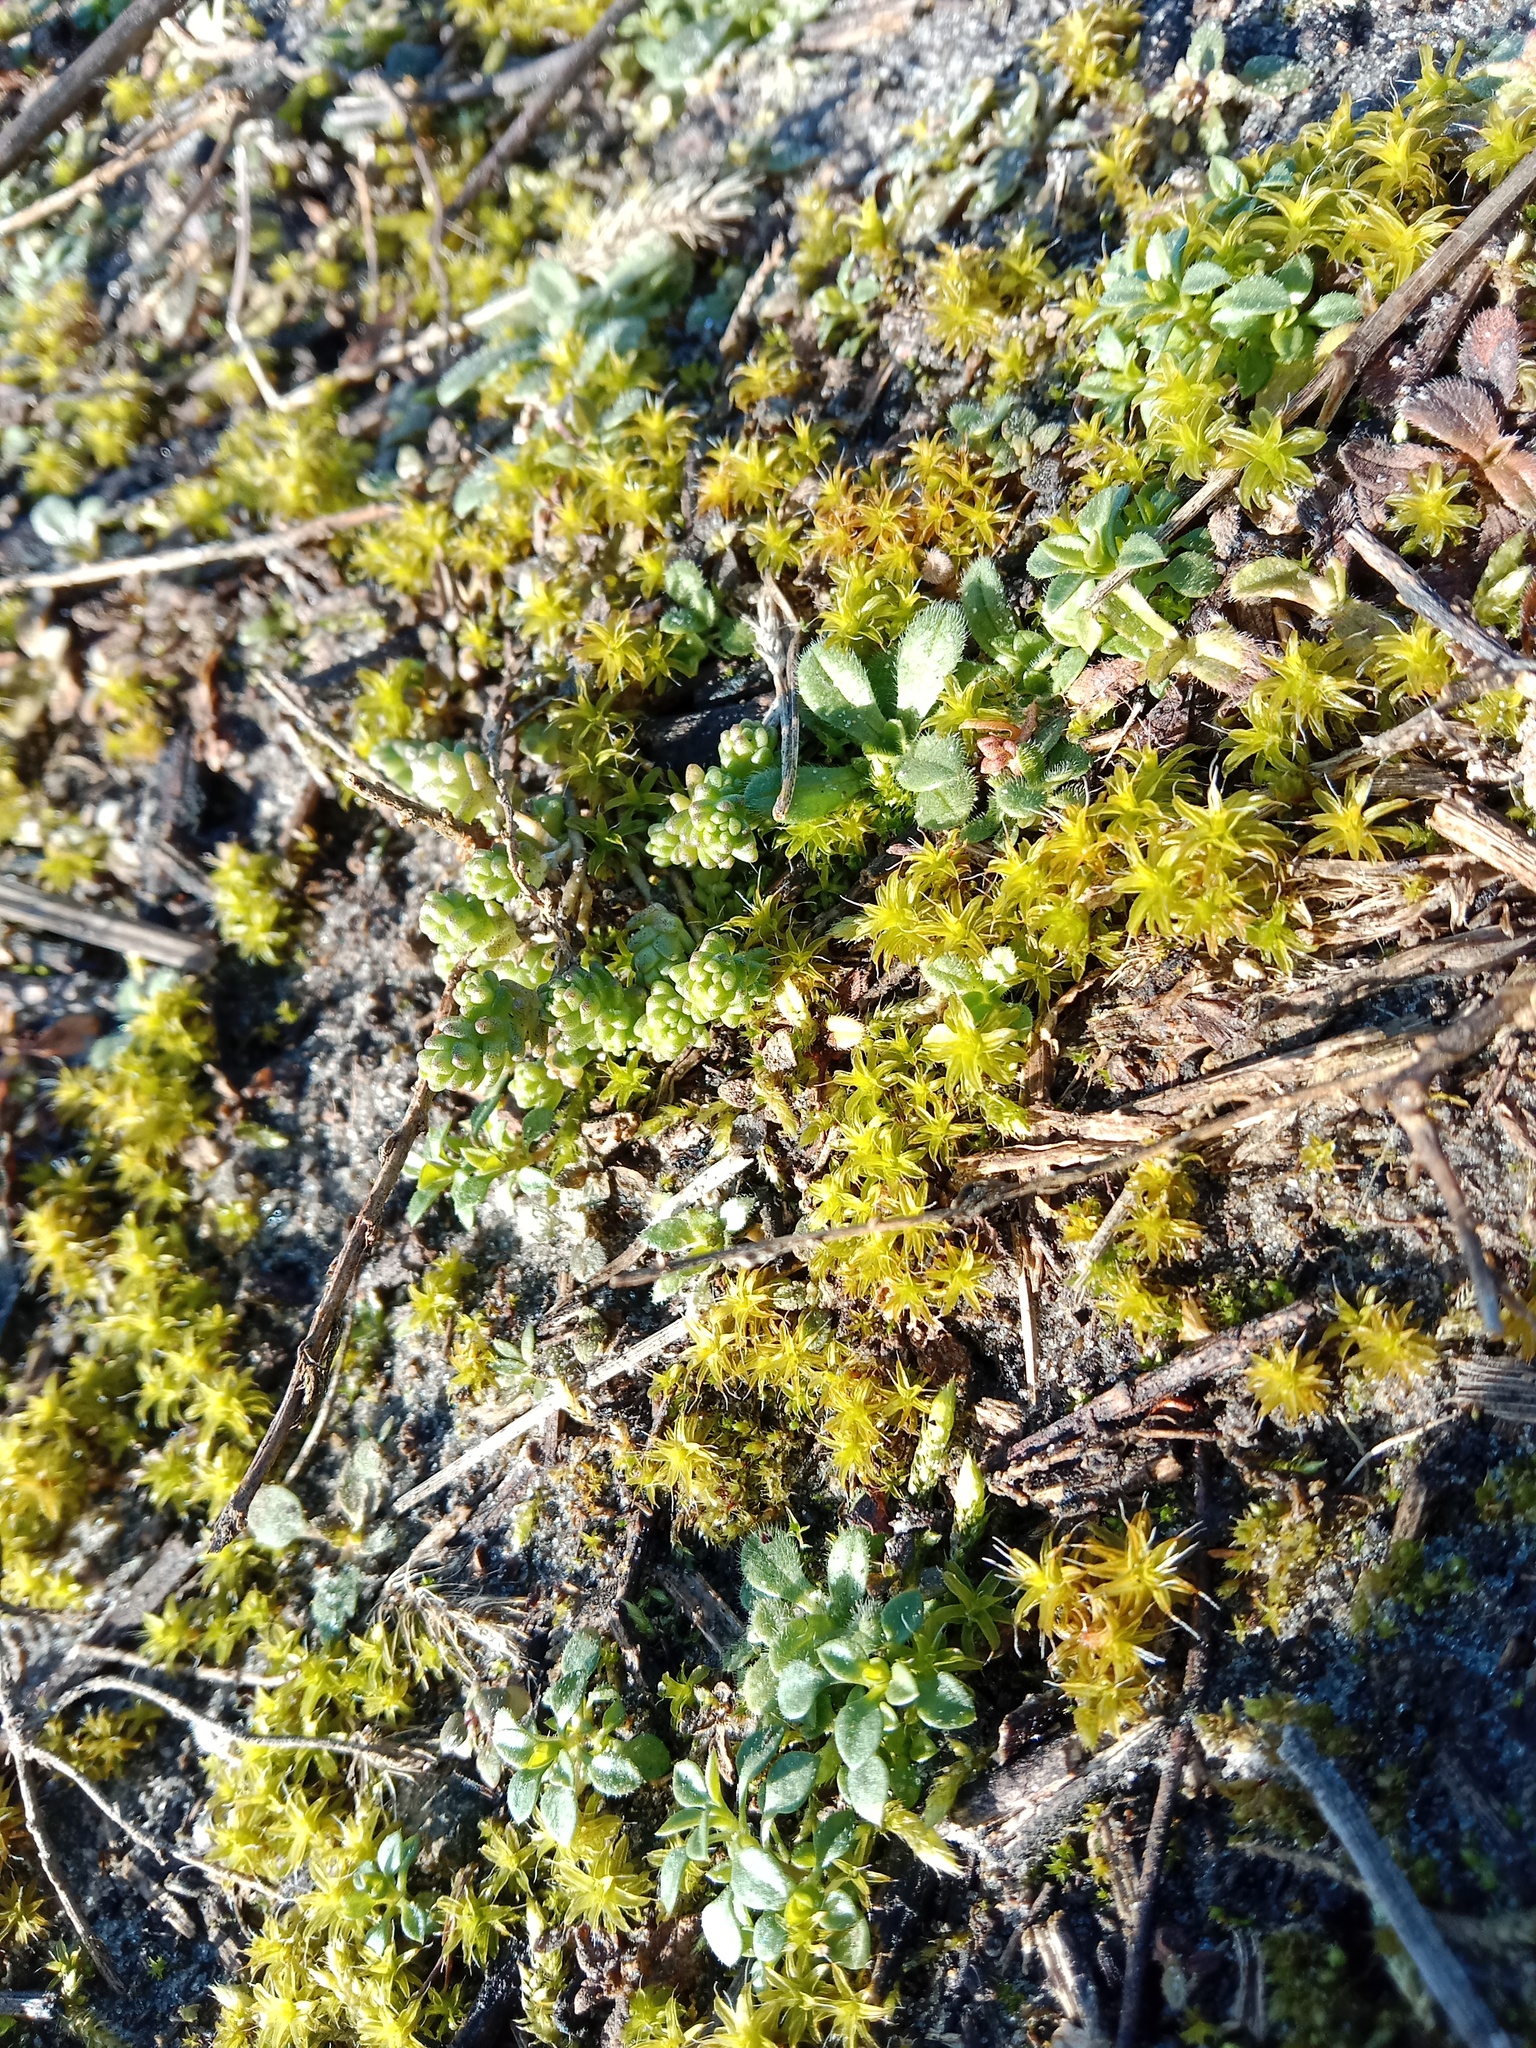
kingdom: Plantae
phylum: Tracheophyta
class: Magnoliopsida
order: Saxifragales
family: Crassulaceae
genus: Sedum
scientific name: Sedum acre
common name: Biting stonecrop
